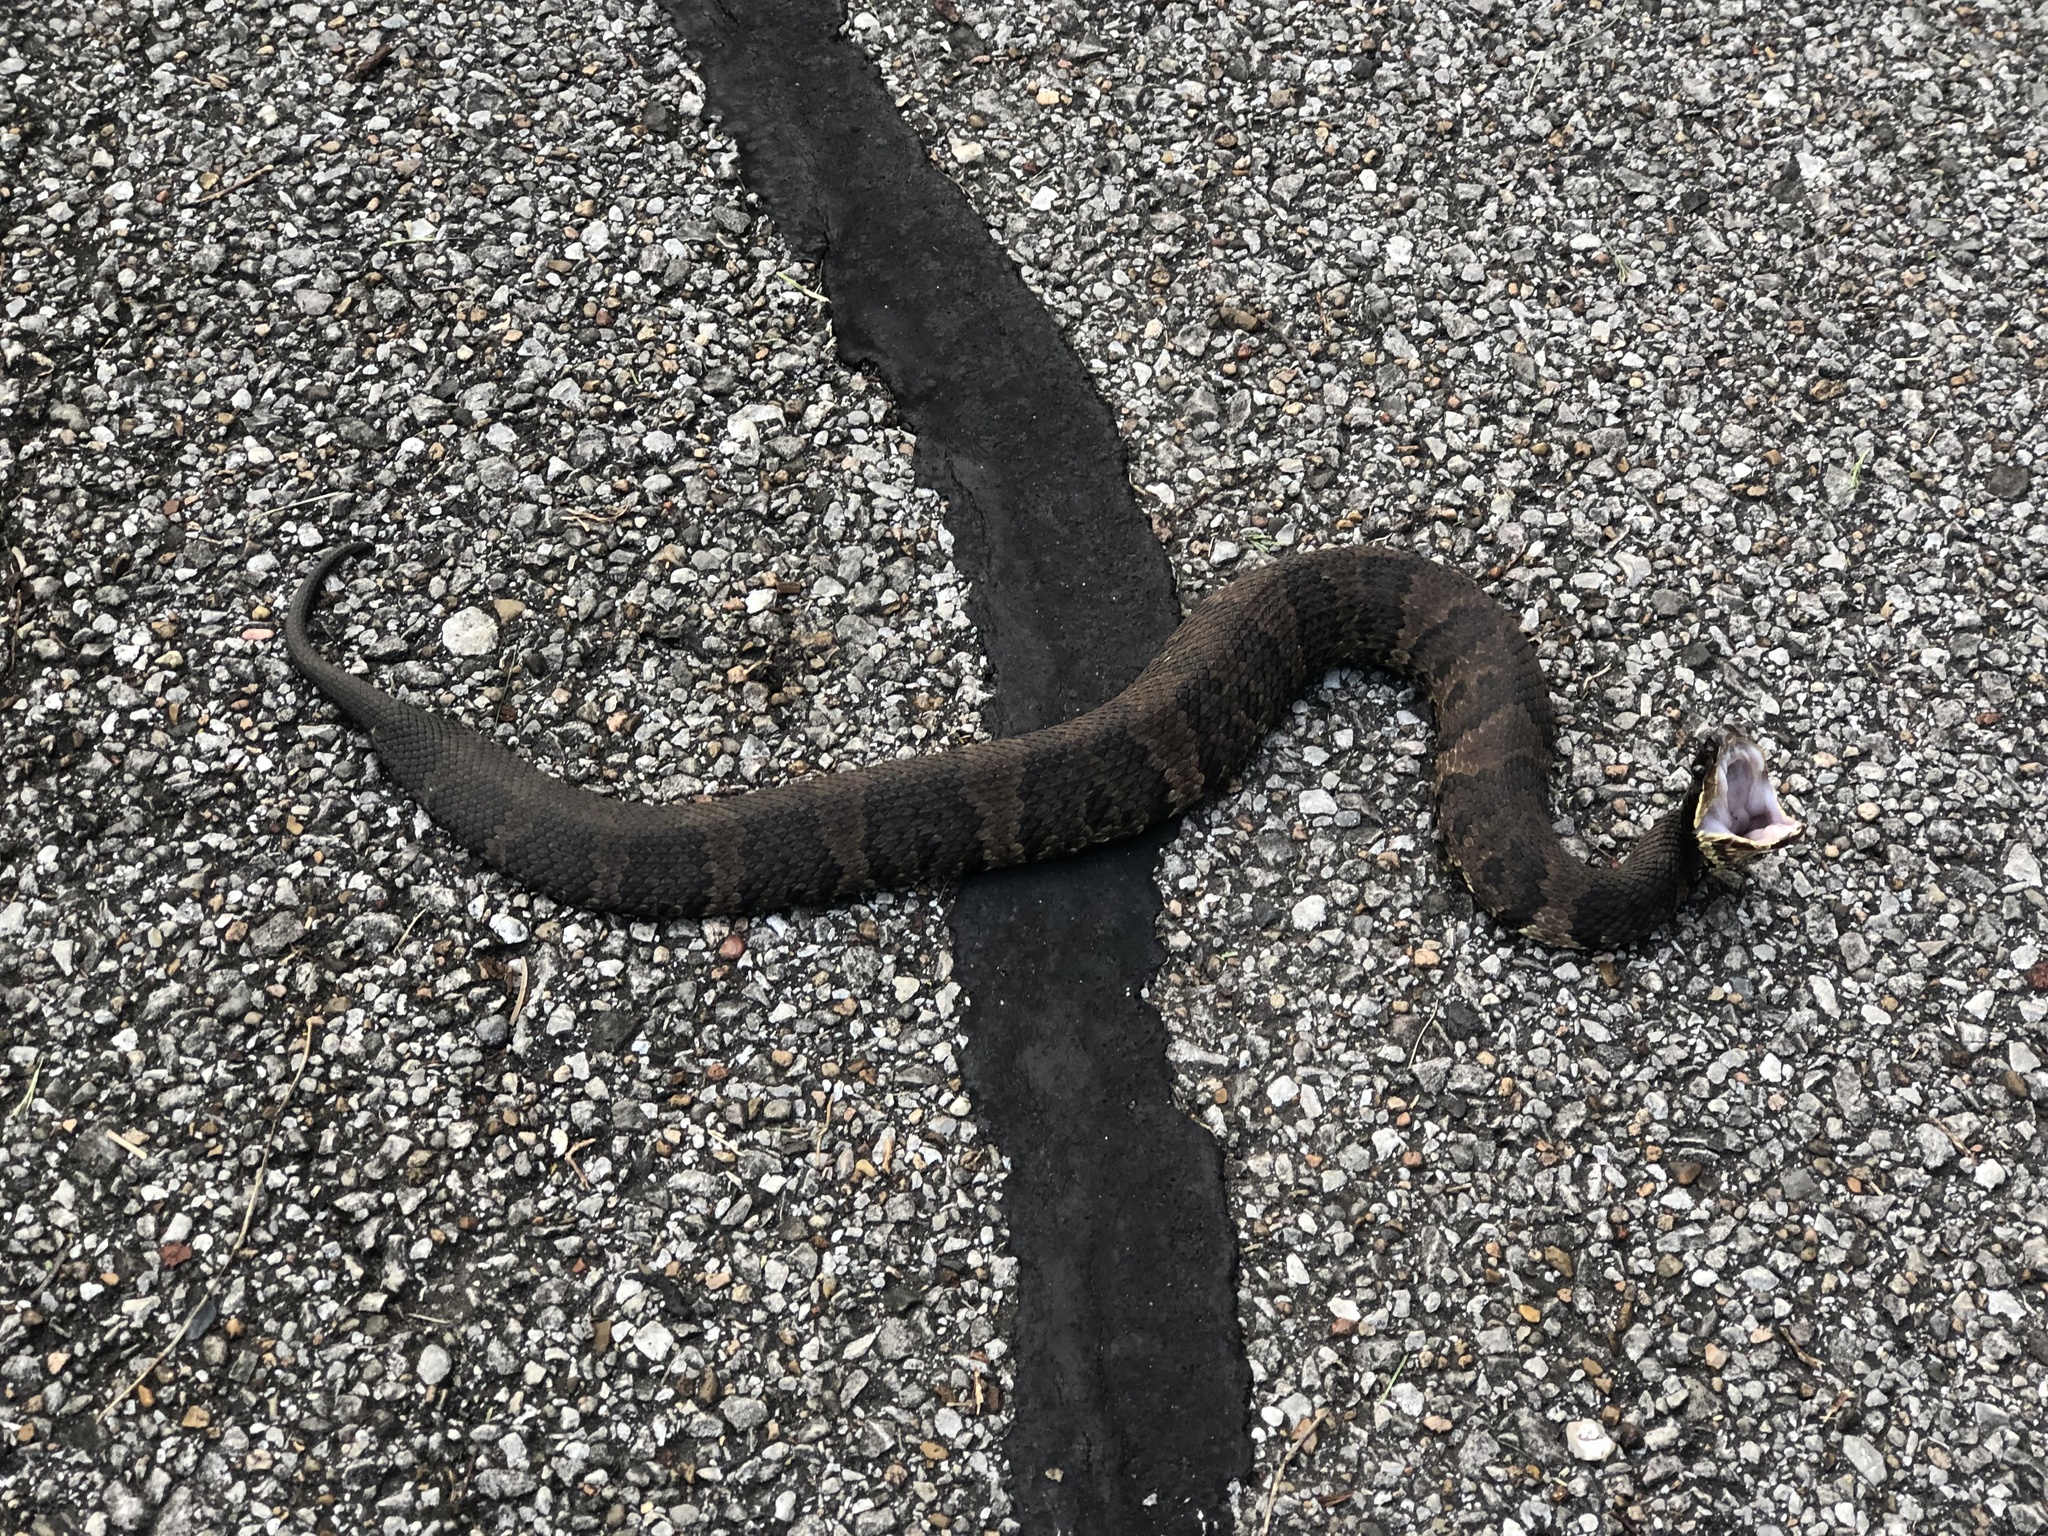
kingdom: Animalia
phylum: Chordata
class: Squamata
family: Viperidae
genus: Agkistrodon
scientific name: Agkistrodon piscivorus
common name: Cottonmouth
